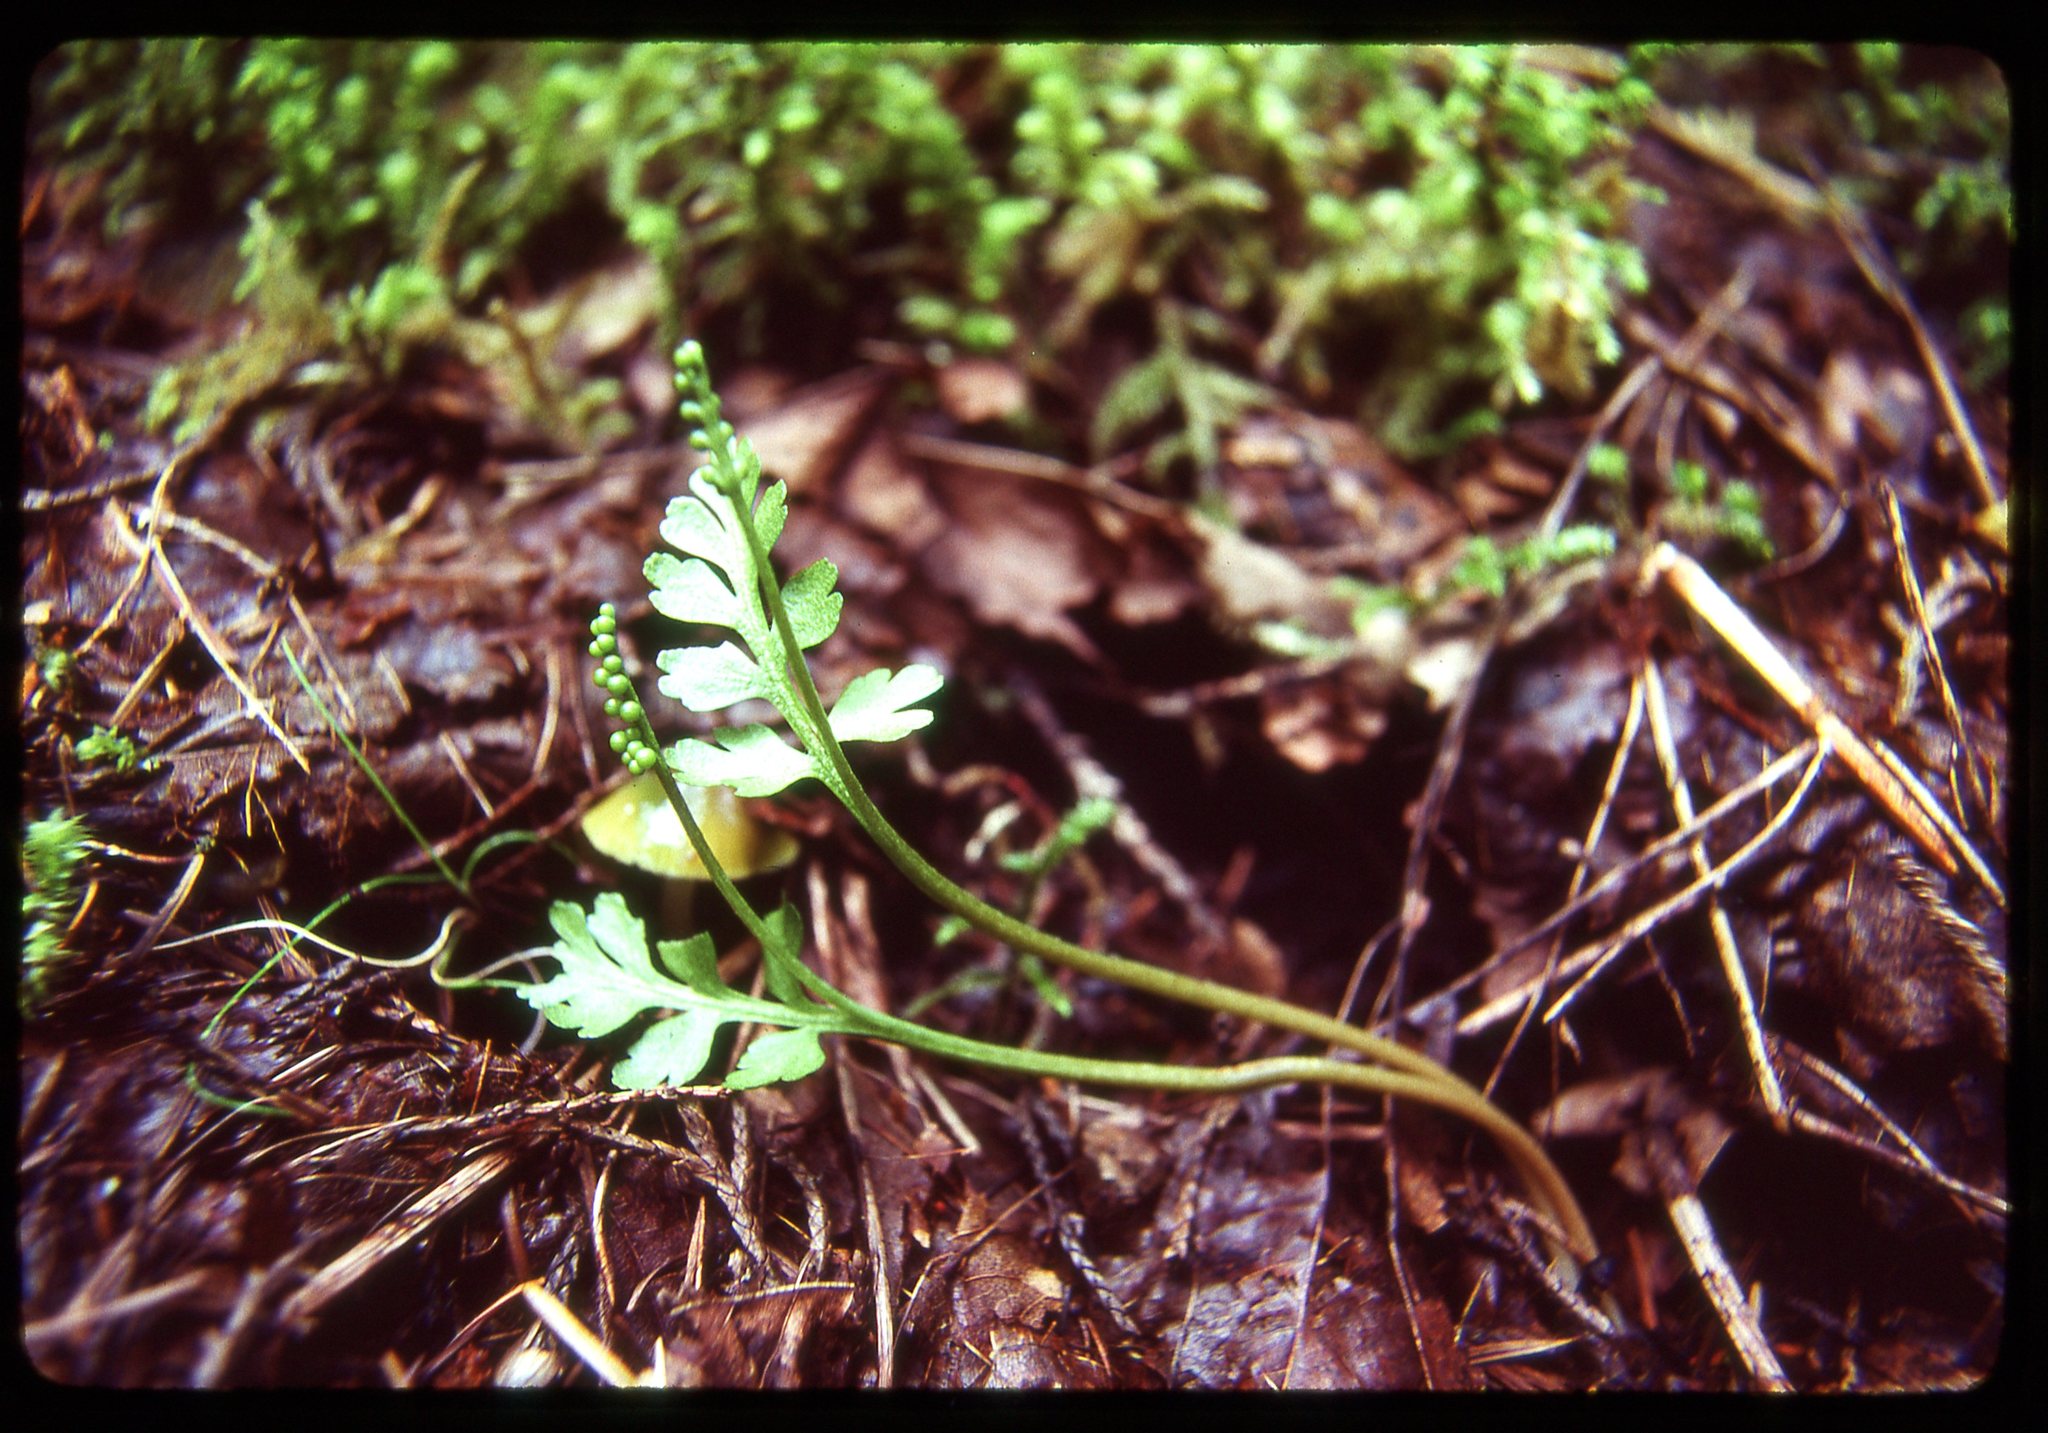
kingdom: Plantae
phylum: Tracheophyta
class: Polypodiopsida
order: Ophioglossales
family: Ophioglossaceae
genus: Botrychium
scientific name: Botrychium pinnatum
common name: Northwestern moonwort
